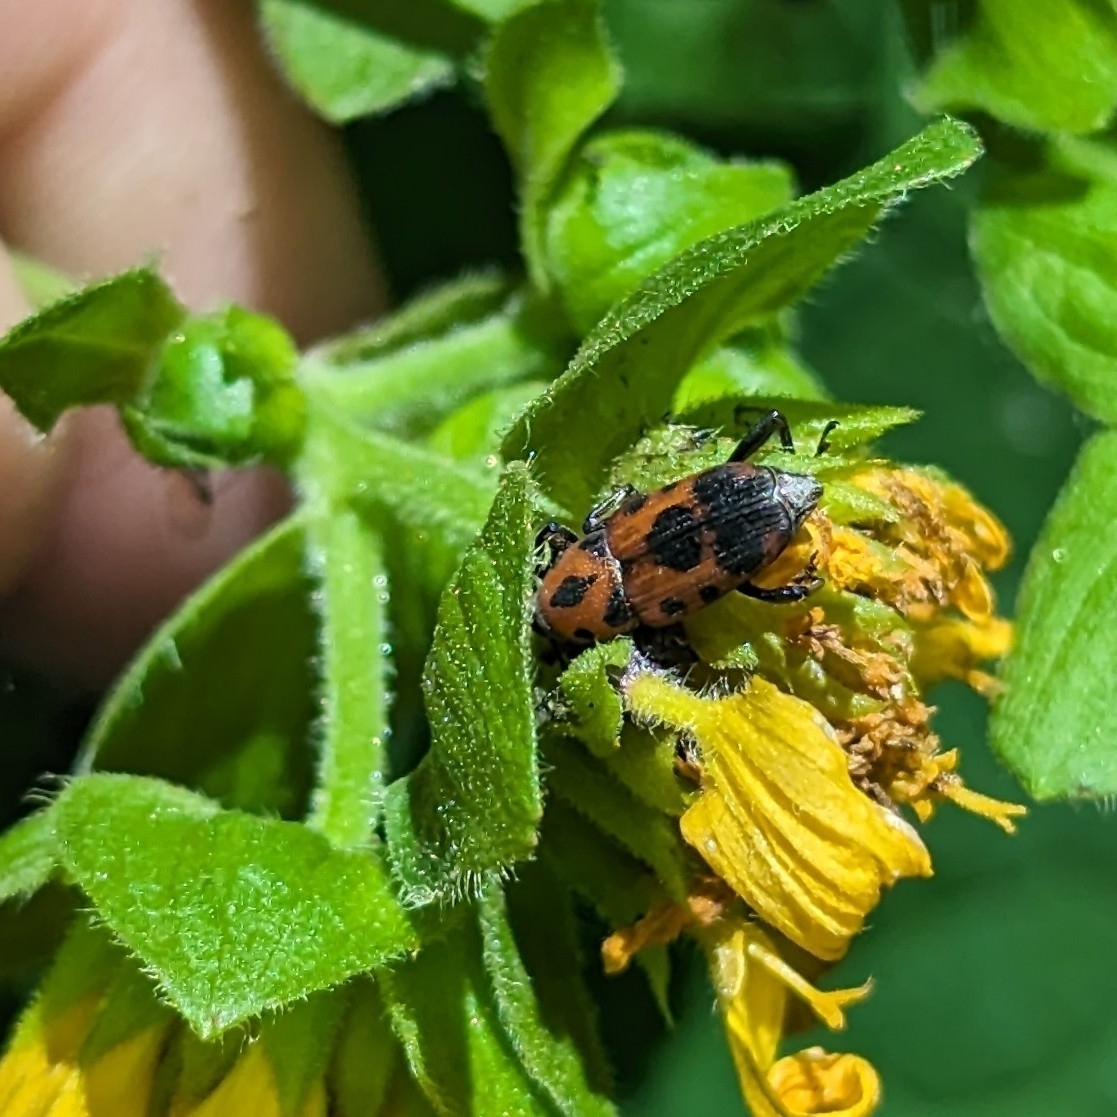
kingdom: Animalia
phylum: Arthropoda
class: Insecta
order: Coleoptera
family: Dryophthoridae
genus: Rhodobaenus
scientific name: Rhodobaenus quinquepunctatus
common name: Cocklebur weevil
